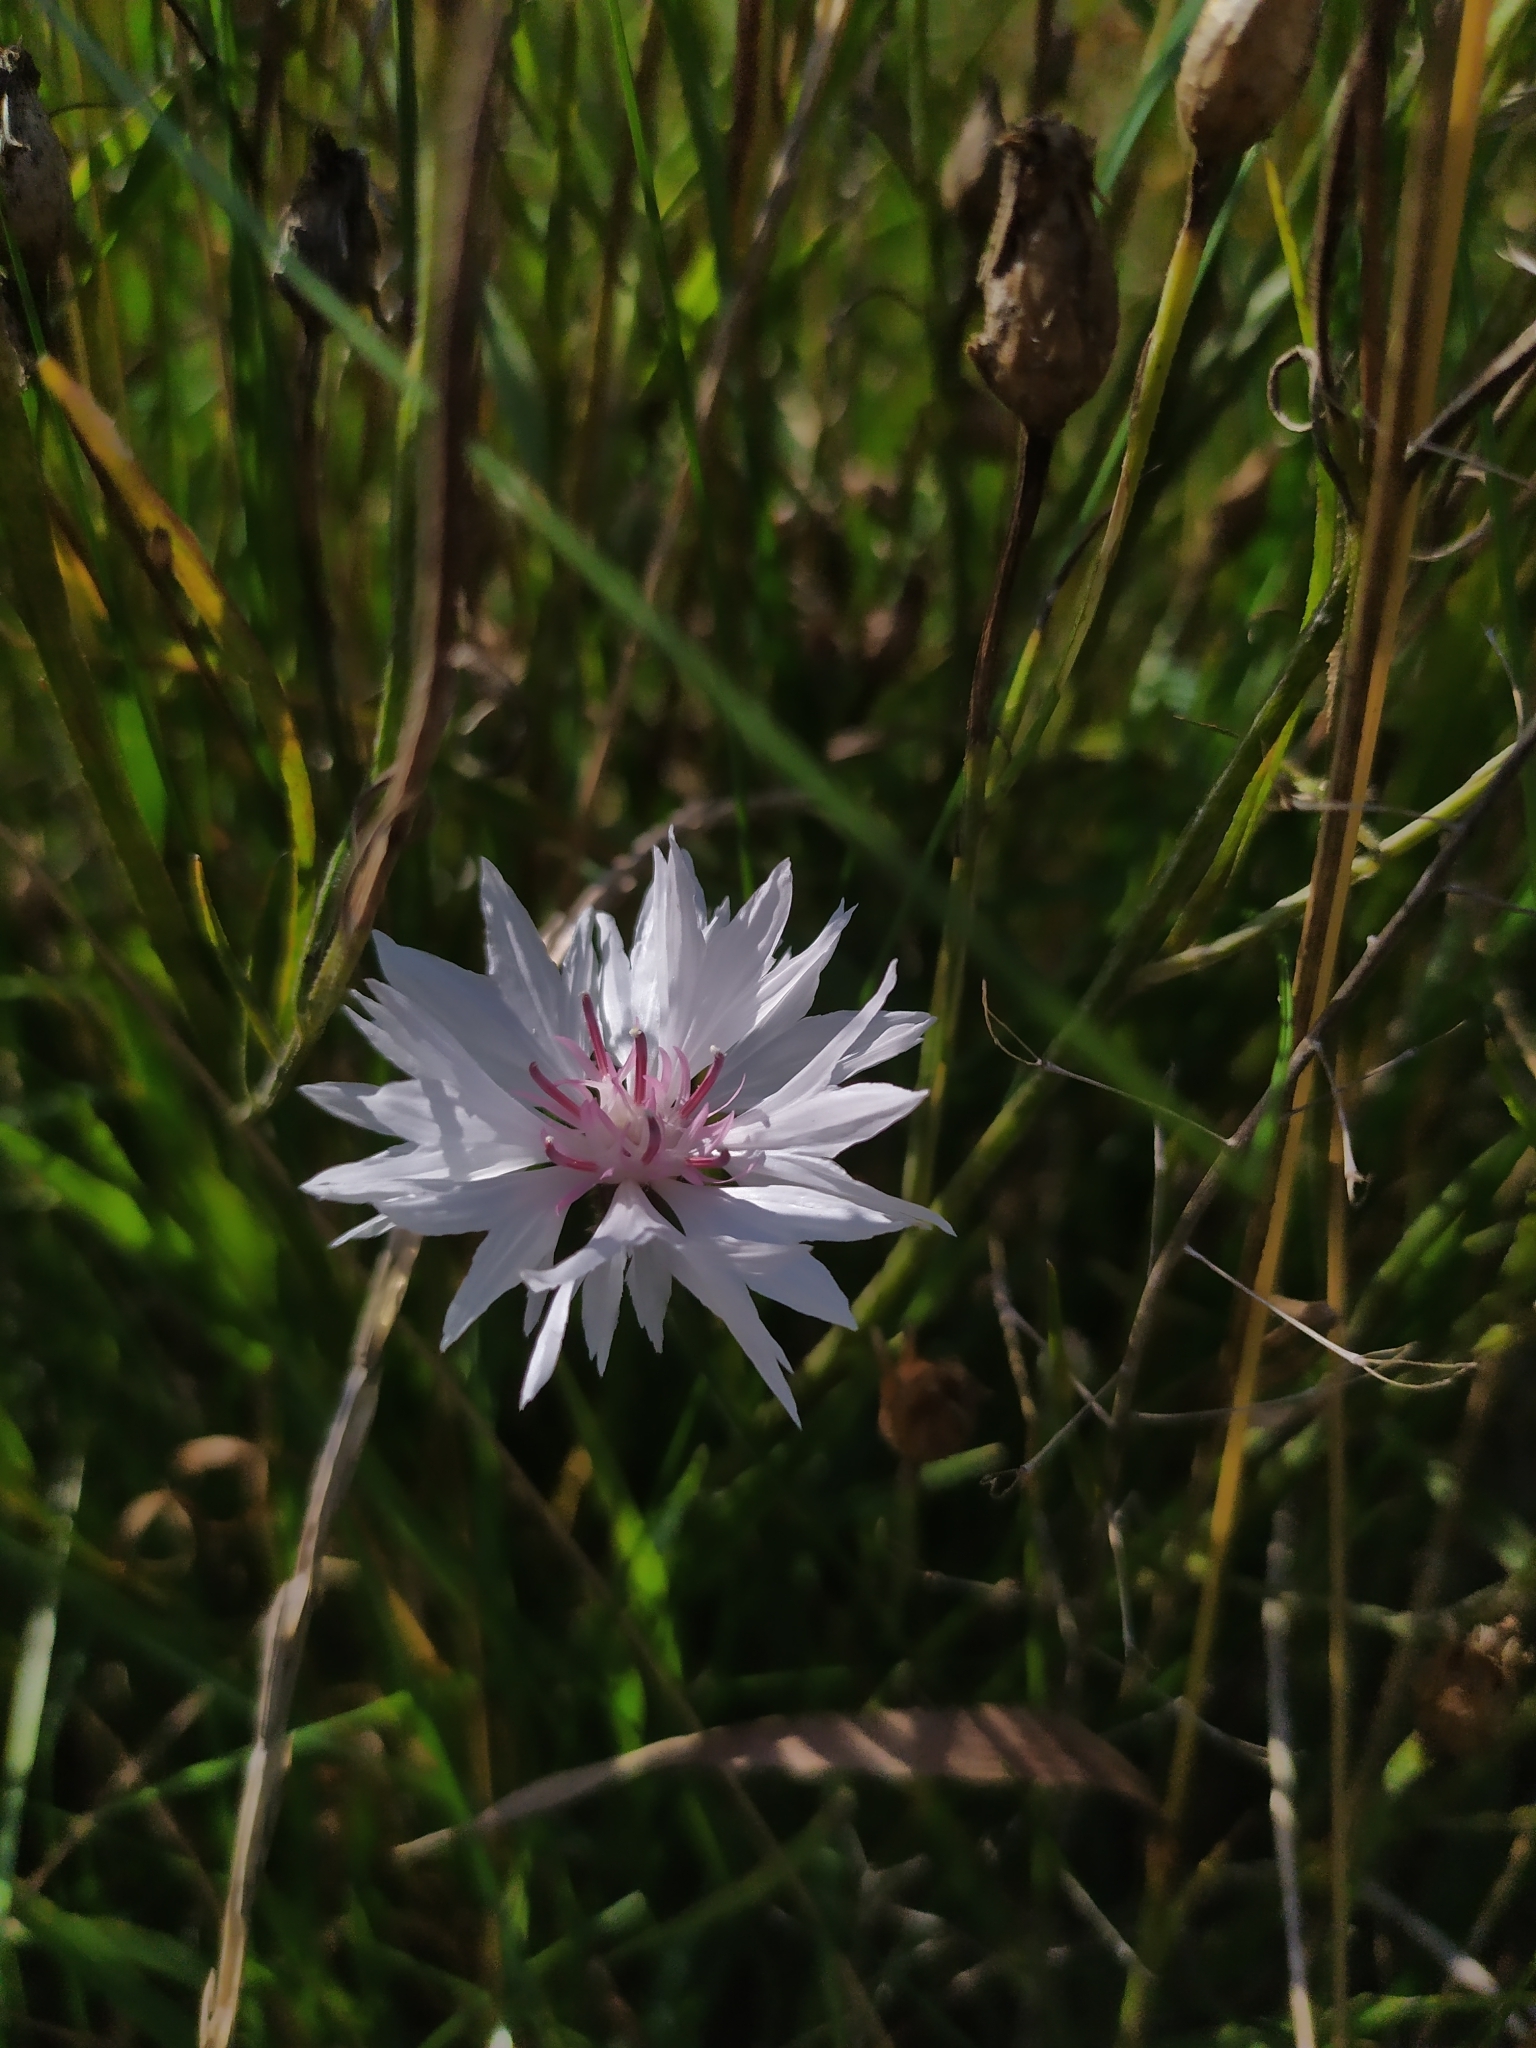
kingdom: Plantae
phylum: Tracheophyta
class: Magnoliopsida
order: Asterales
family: Asteraceae
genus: Centaurea
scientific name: Centaurea cyanus
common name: Cornflower
